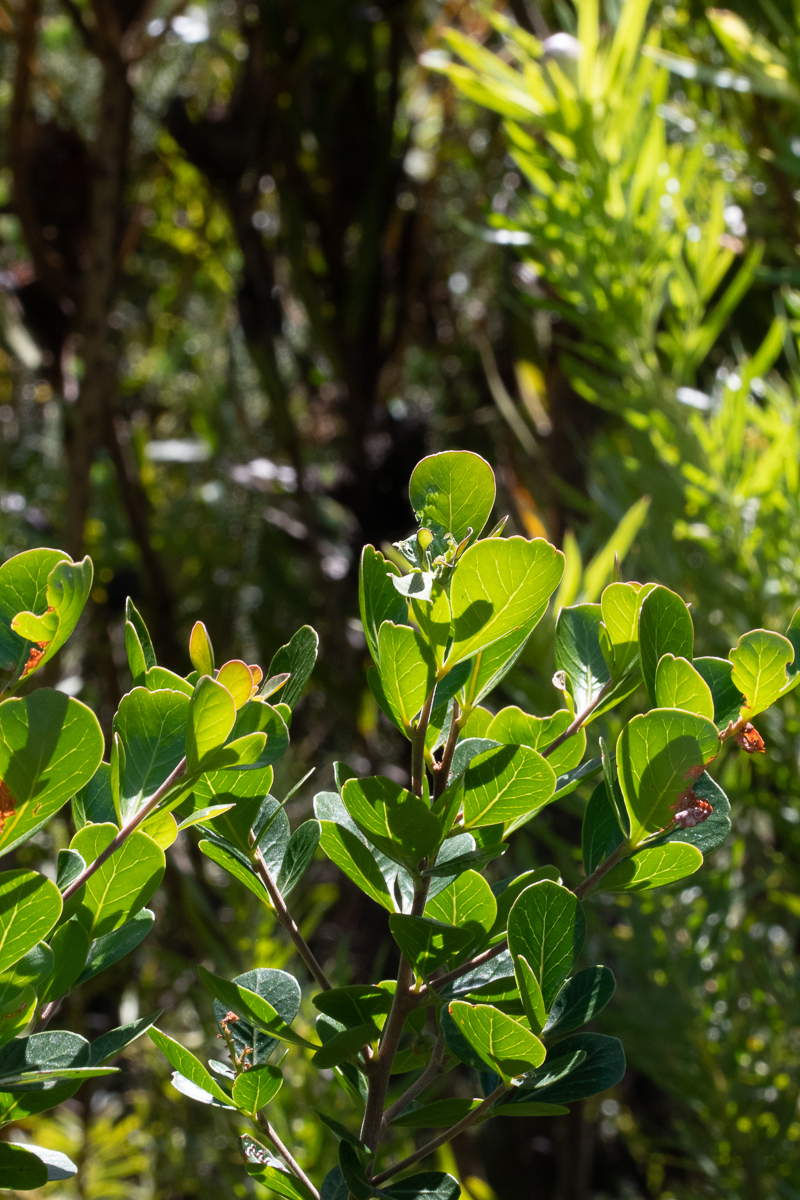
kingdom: Plantae
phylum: Tracheophyta
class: Magnoliopsida
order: Sapindales
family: Anacardiaceae
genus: Searsia
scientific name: Searsia lucida
